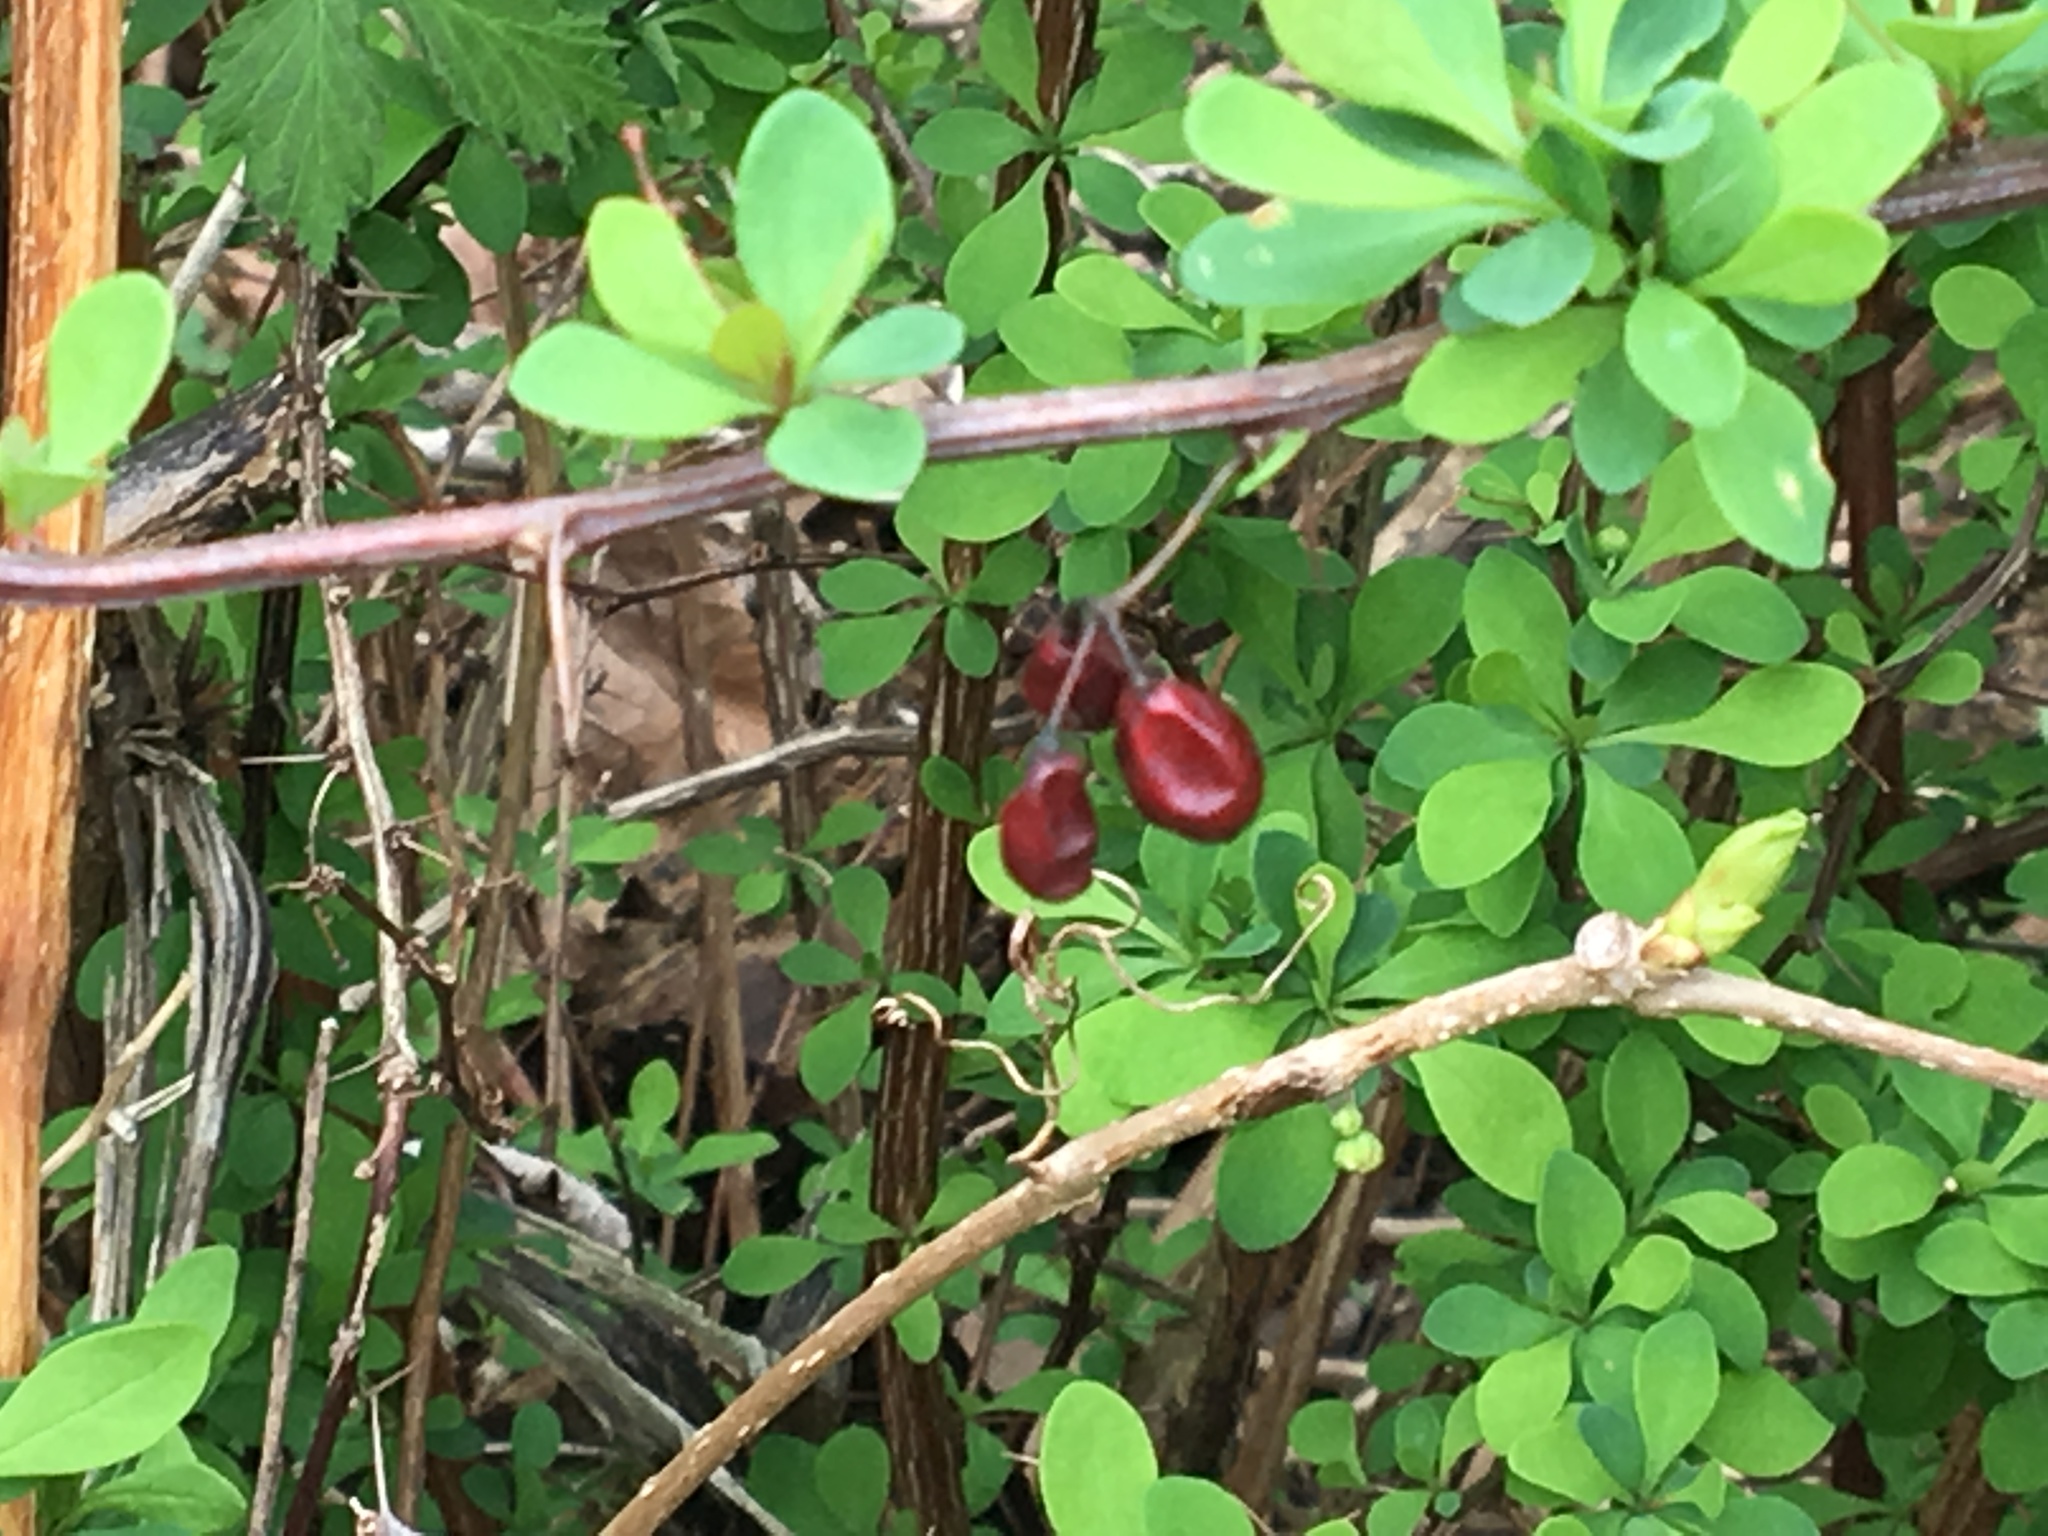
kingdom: Plantae
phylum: Tracheophyta
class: Magnoliopsida
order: Ranunculales
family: Berberidaceae
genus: Berberis
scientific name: Berberis thunbergii
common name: Japanese barberry
